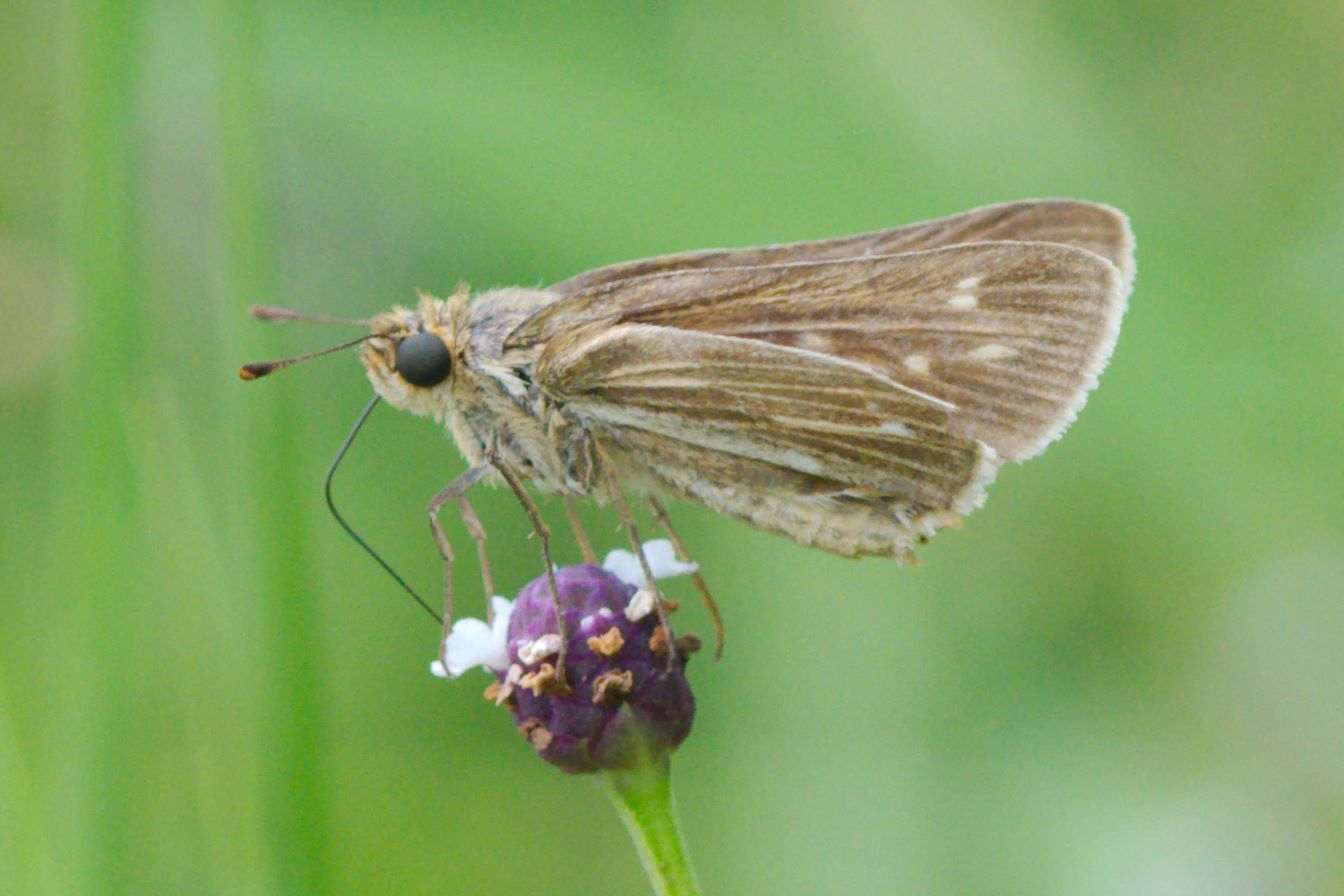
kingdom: Animalia
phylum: Arthropoda
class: Insecta
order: Lepidoptera
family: Hesperiidae
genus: Panoquina
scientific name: Panoquina panoquin
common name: Salt marsh skipper
